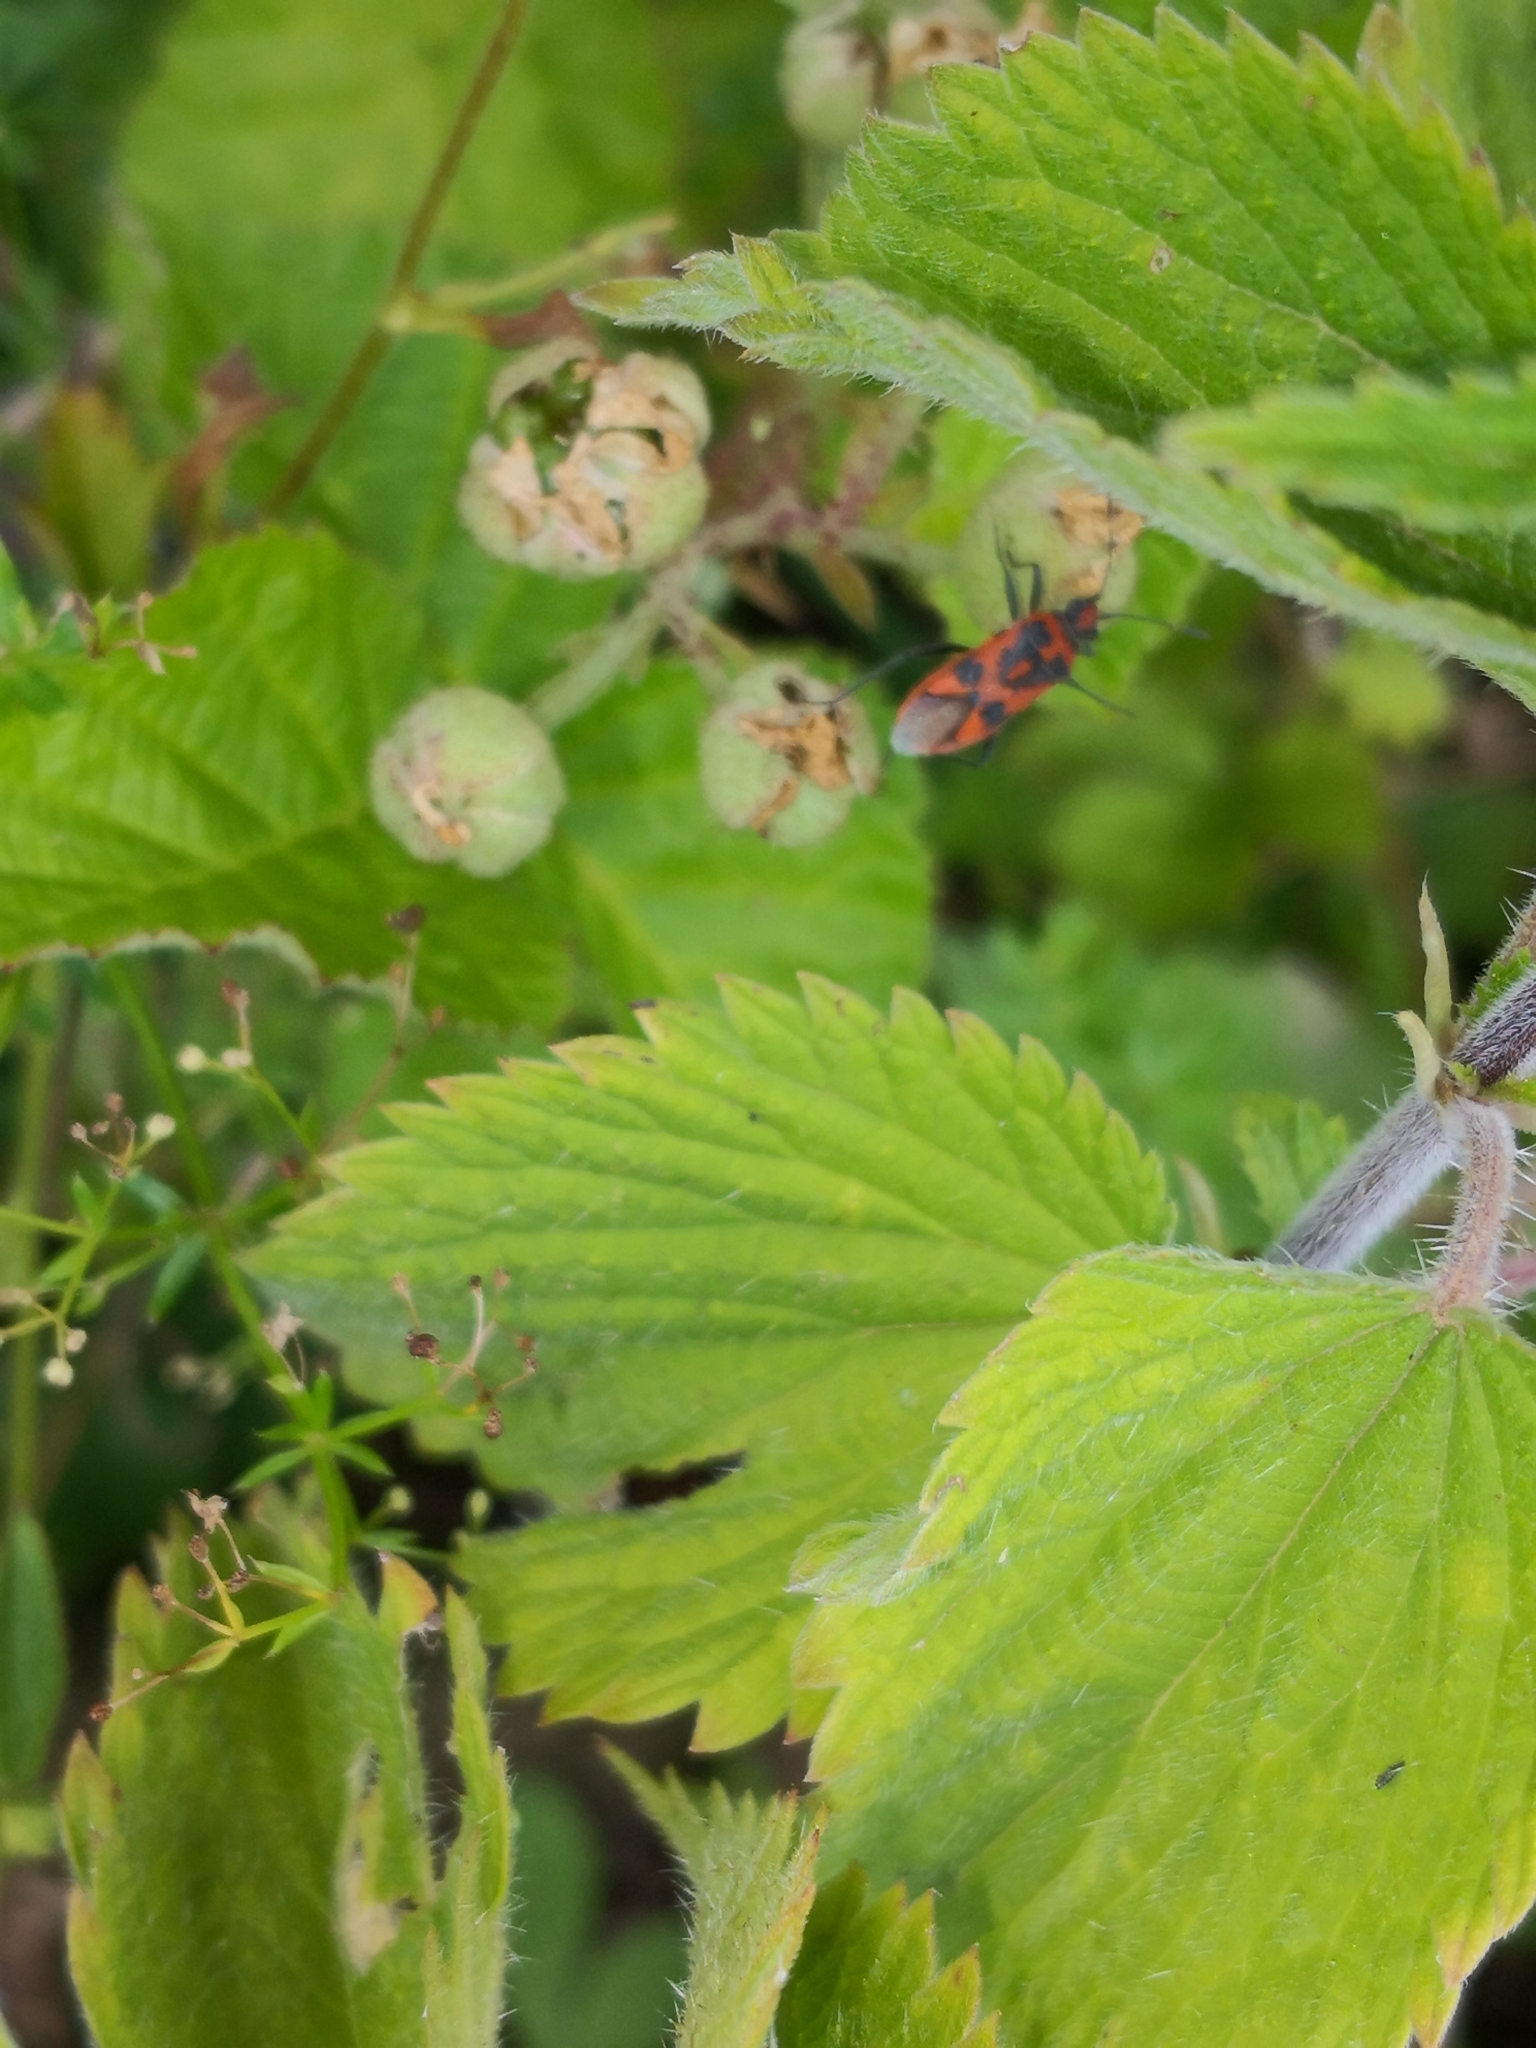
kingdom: Animalia
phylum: Arthropoda
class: Insecta
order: Hemiptera
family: Rhopalidae
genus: Corizus
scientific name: Corizus hyoscyami
